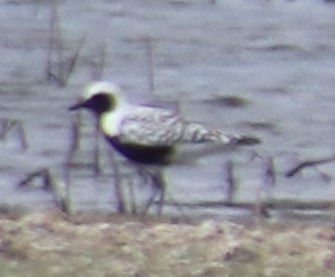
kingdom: Animalia
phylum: Chordata
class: Aves
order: Charadriiformes
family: Charadriidae
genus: Pluvialis
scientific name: Pluvialis squatarola
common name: Grey plover
